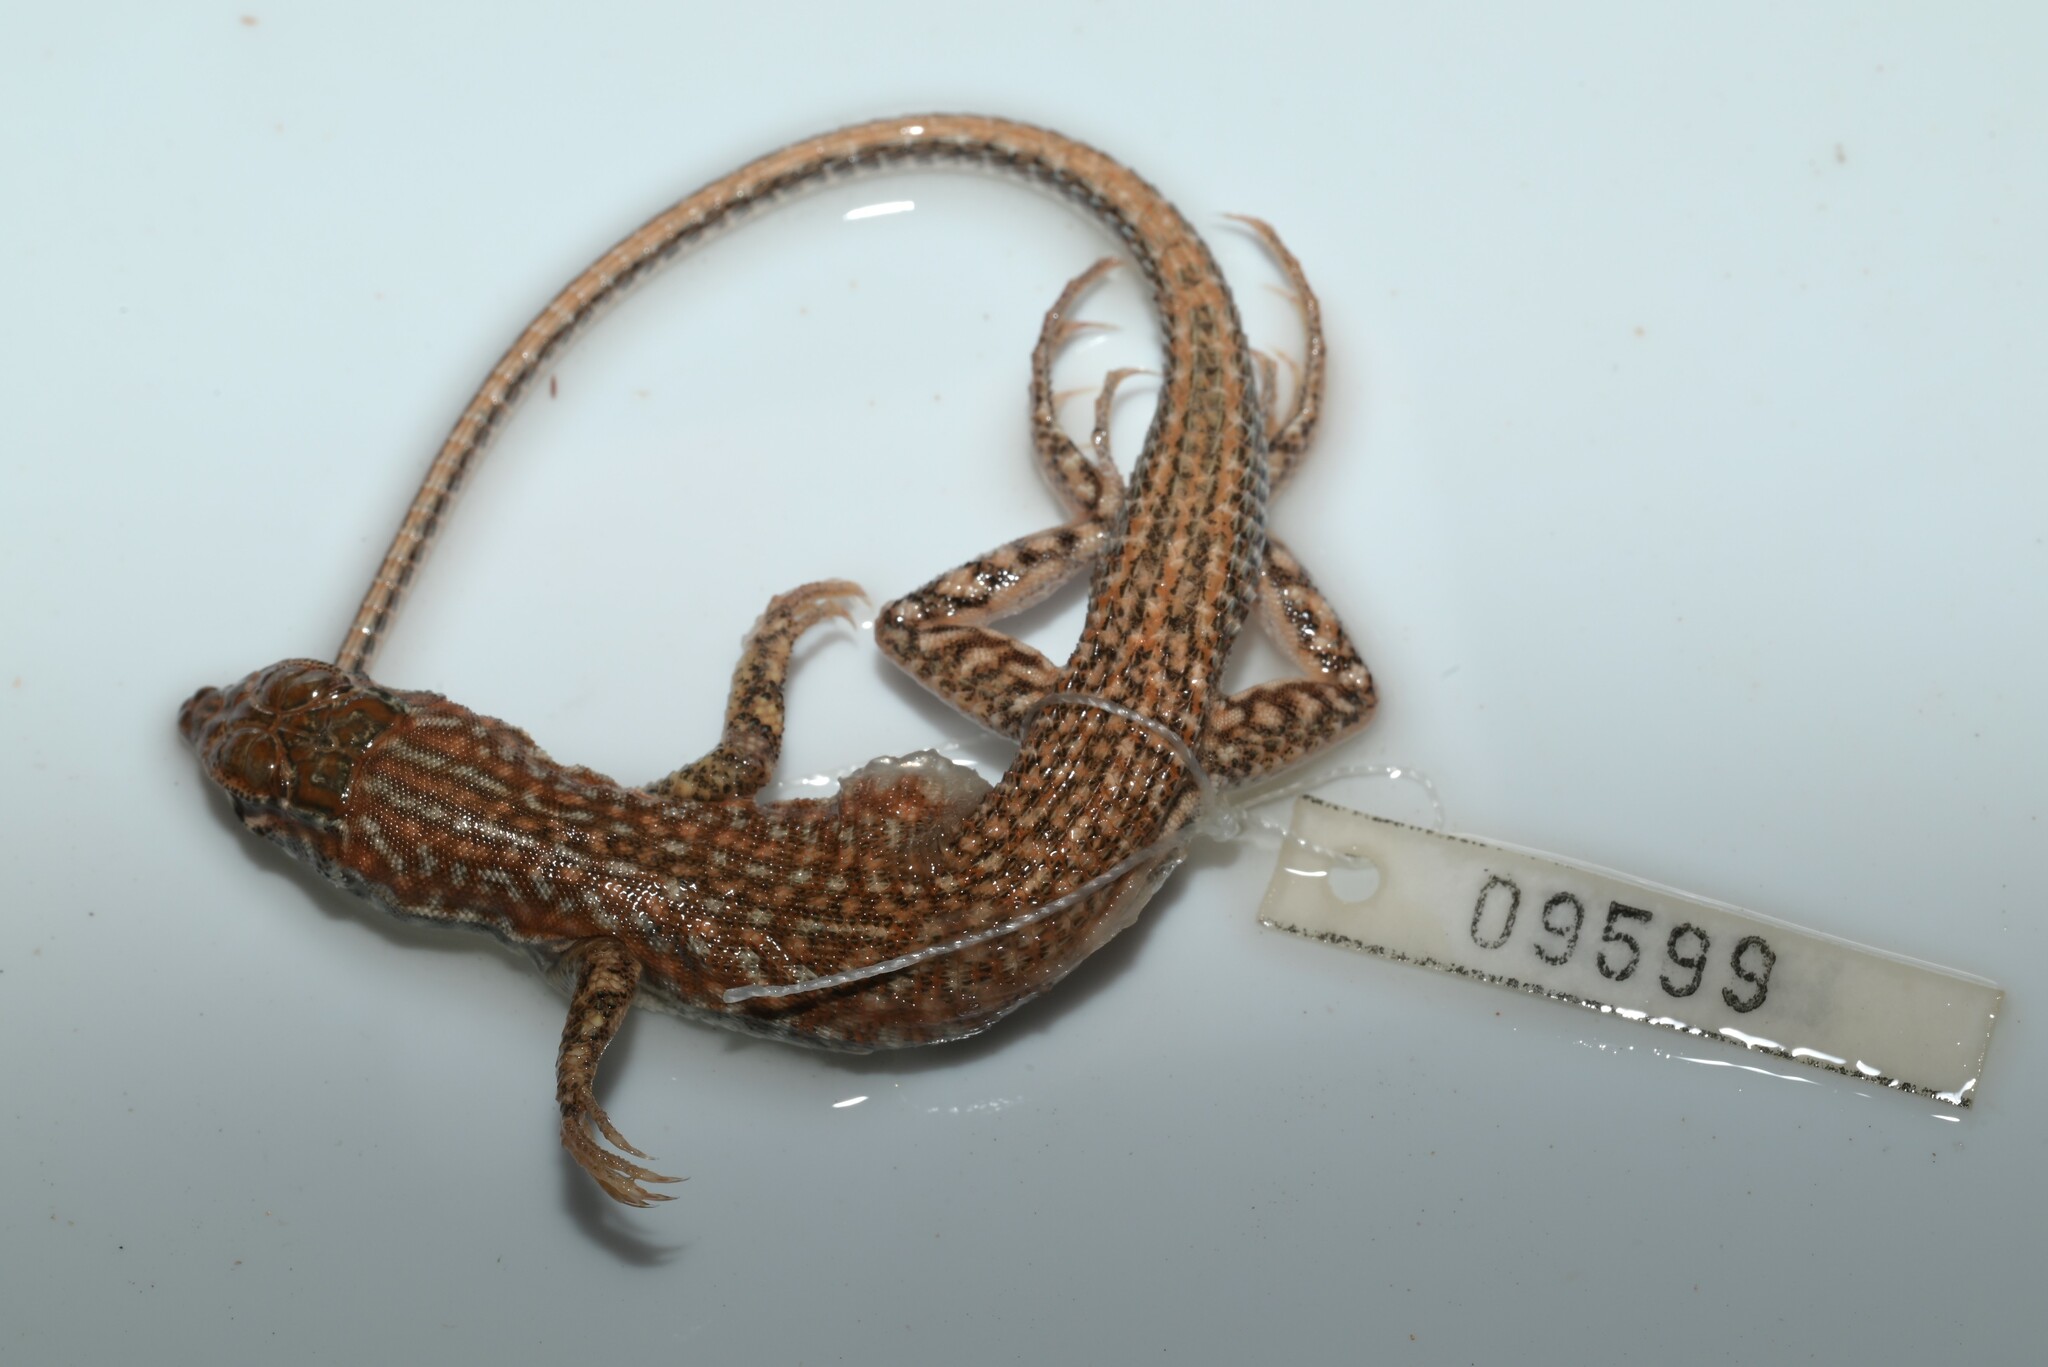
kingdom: Animalia
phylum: Chordata
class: Squamata
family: Lacertidae
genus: Acanthodactylus
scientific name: Acanthodactylus opheodurus
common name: Arnold's fringe-fingered lizard
